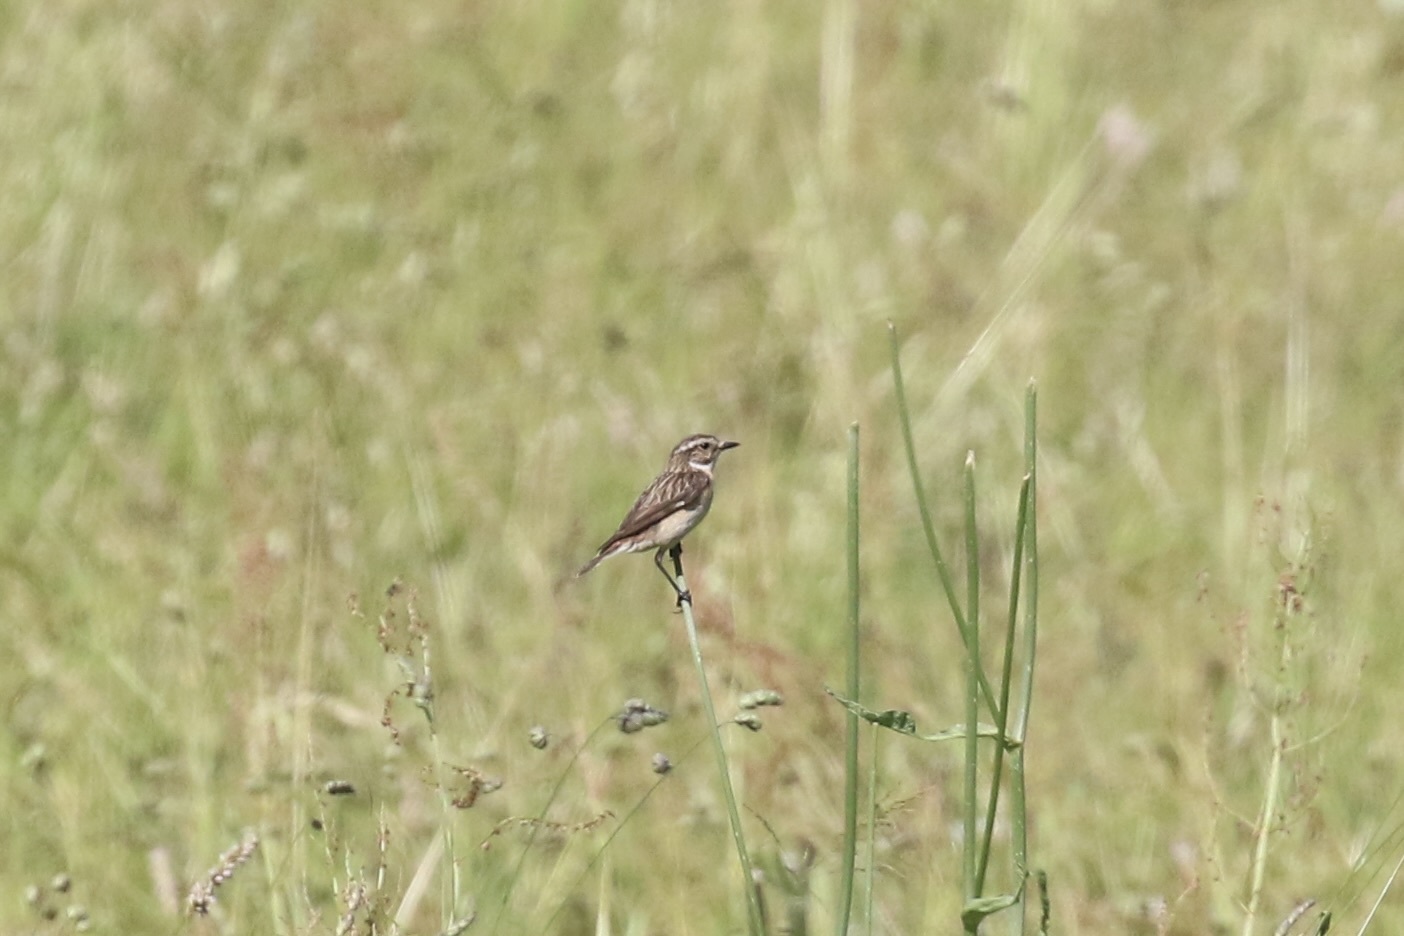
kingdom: Animalia
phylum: Chordata
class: Aves
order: Passeriformes
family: Muscicapidae
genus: Saxicola
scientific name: Saxicola rubetra
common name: Whinchat
